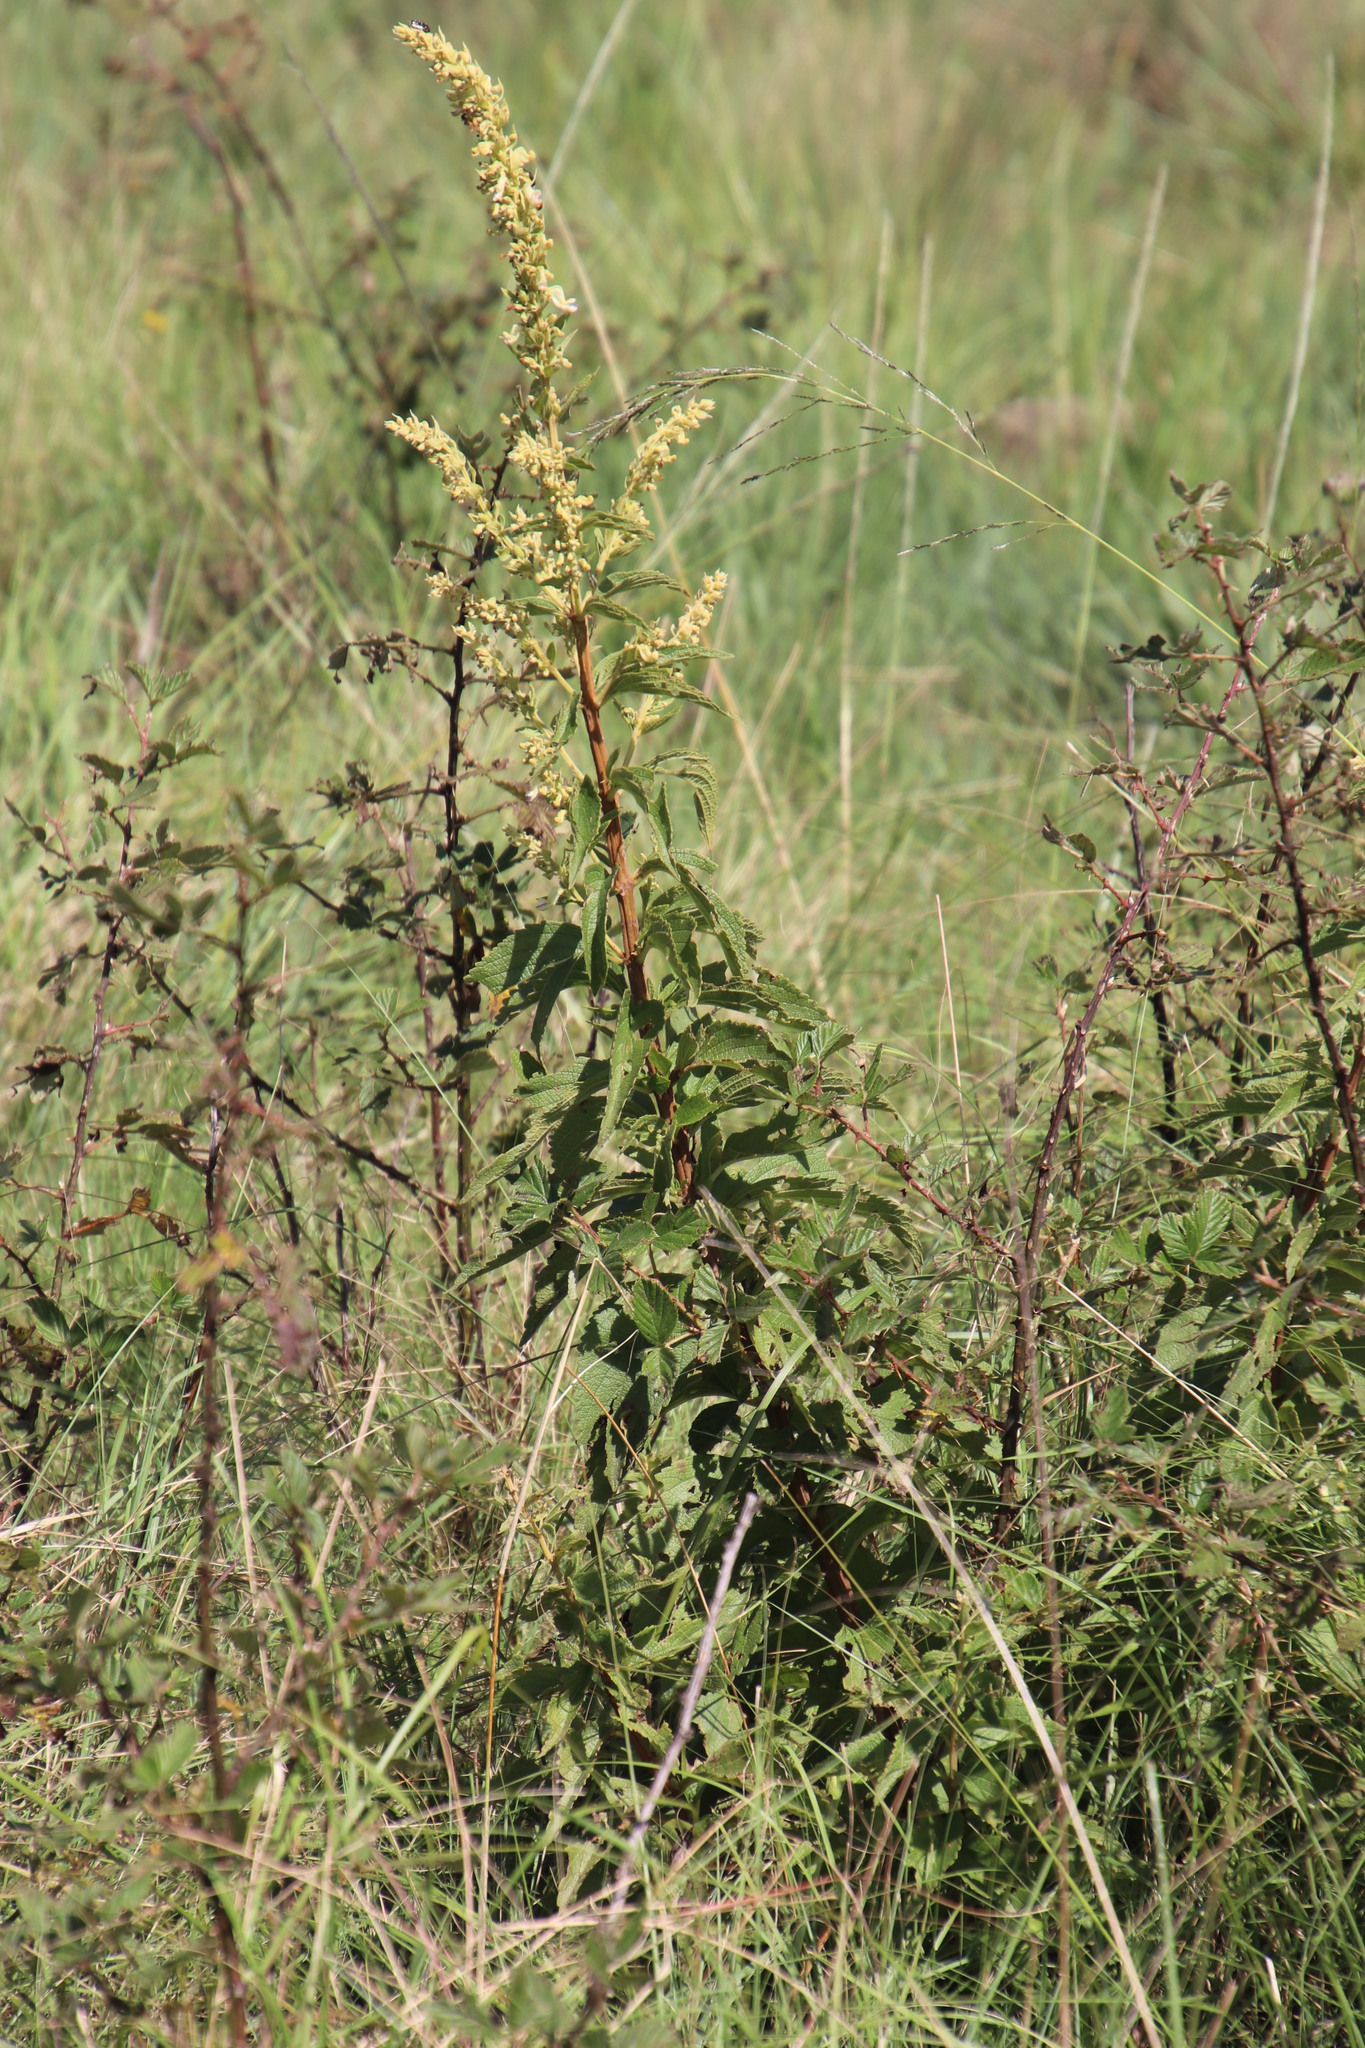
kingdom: Plantae
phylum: Tracheophyta
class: Magnoliopsida
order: Lamiales
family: Lamiaceae
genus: Coleus
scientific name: Coleus calycinus
